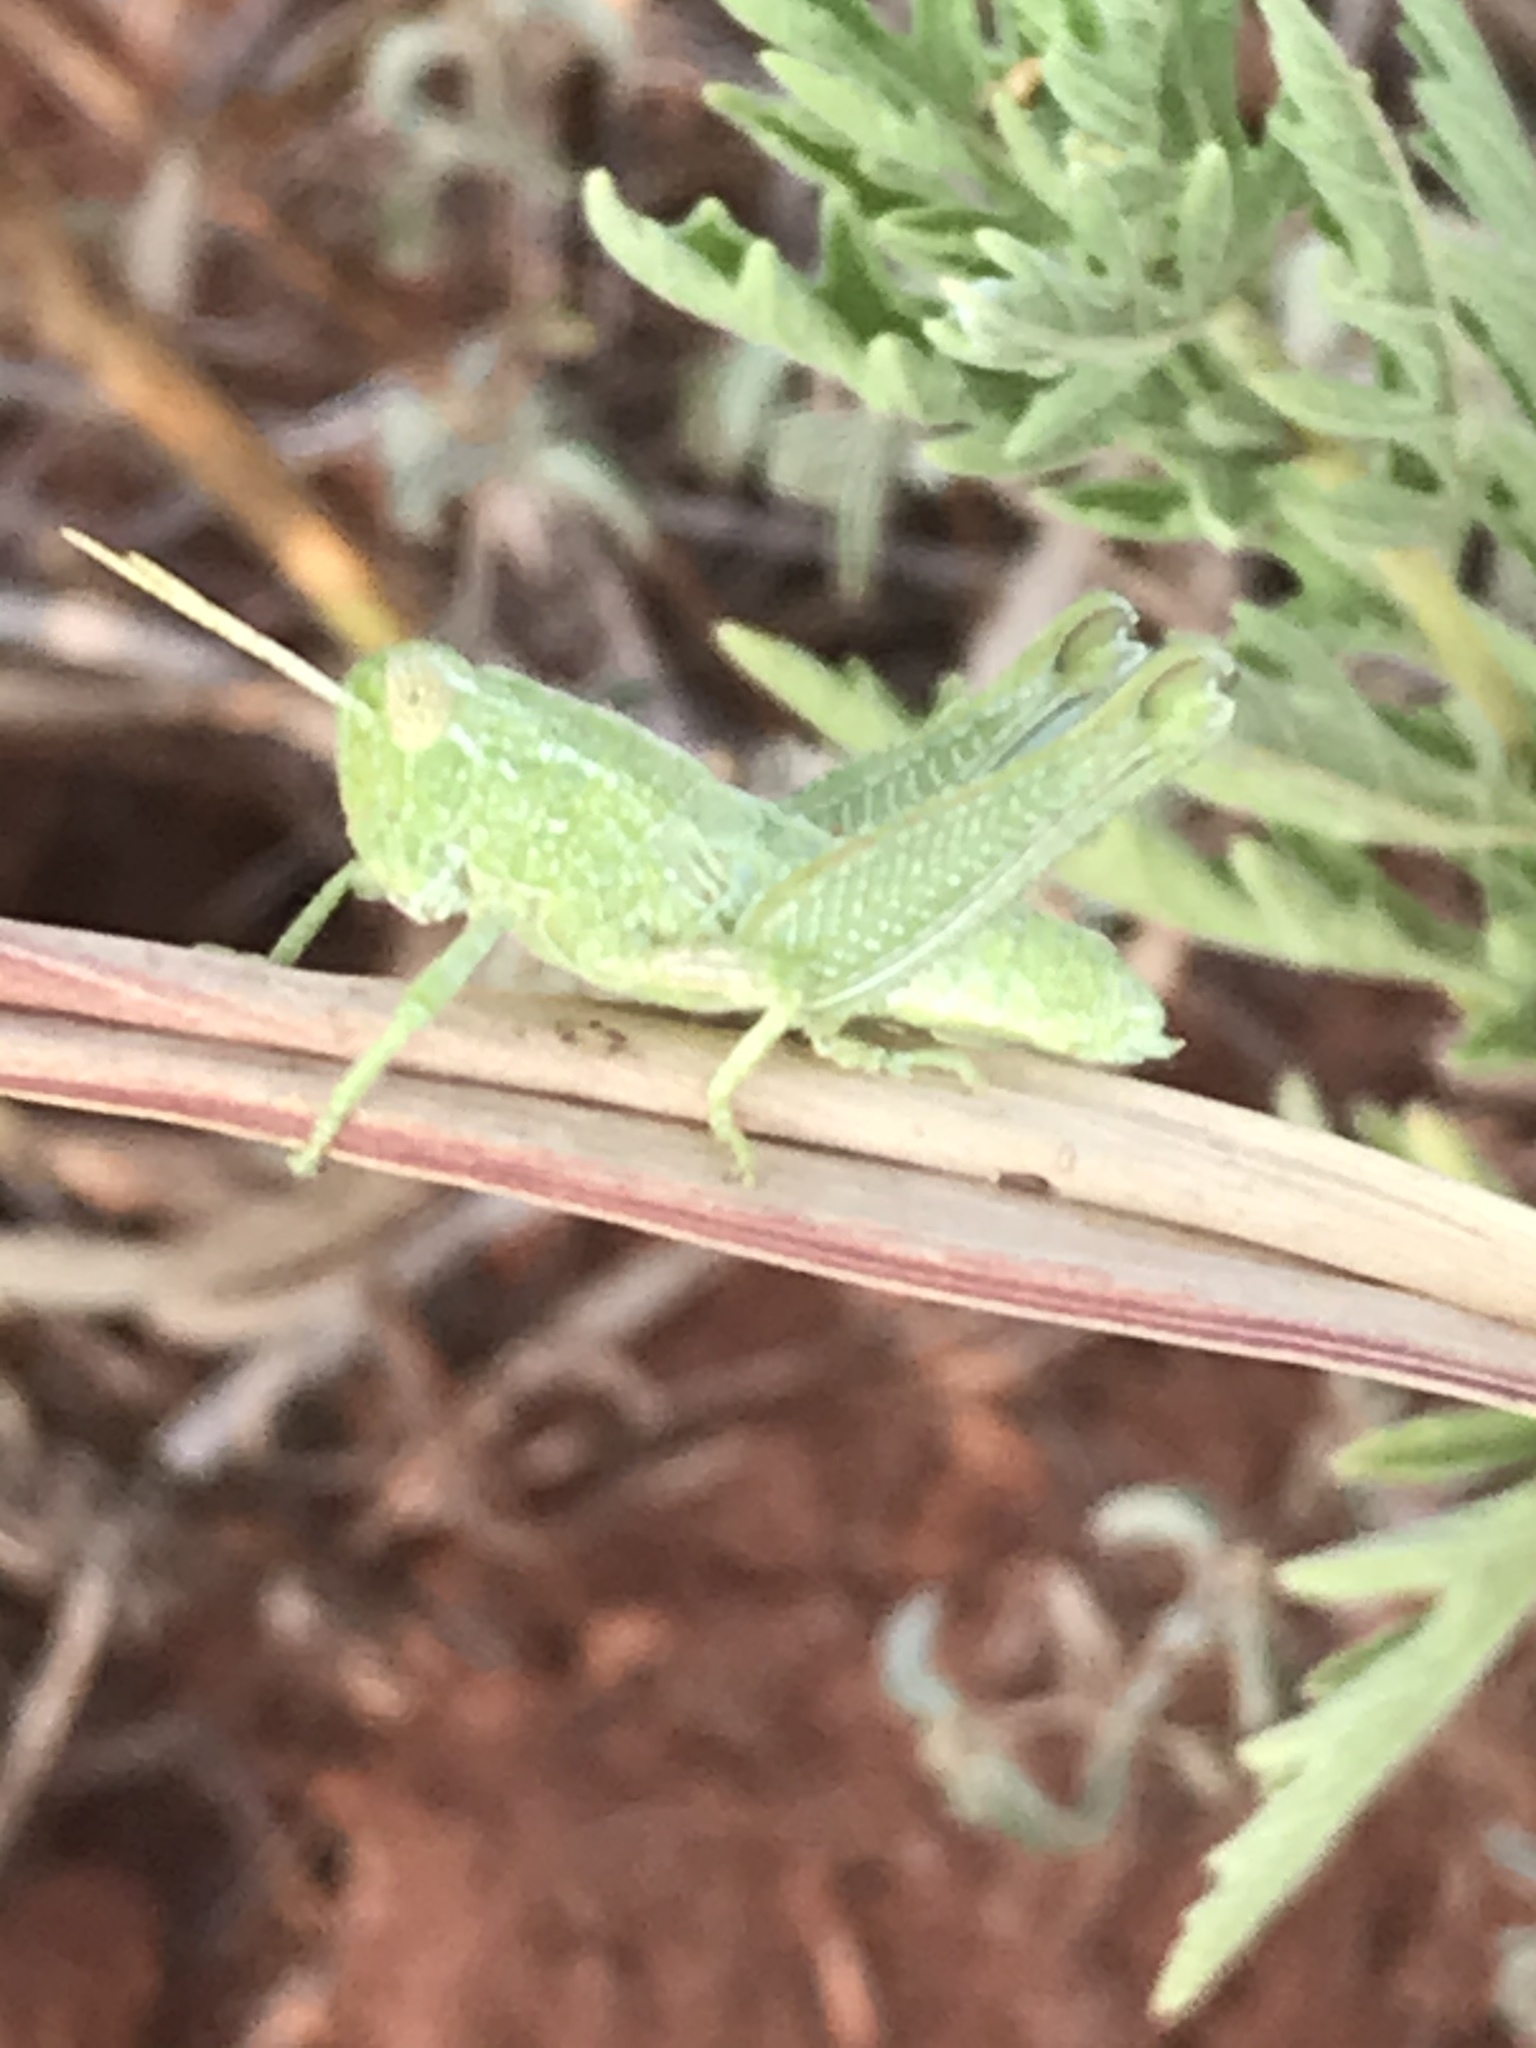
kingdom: Animalia
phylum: Arthropoda
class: Insecta
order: Orthoptera
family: Acrididae
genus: Campylacantha
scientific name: Campylacantha olivacea
